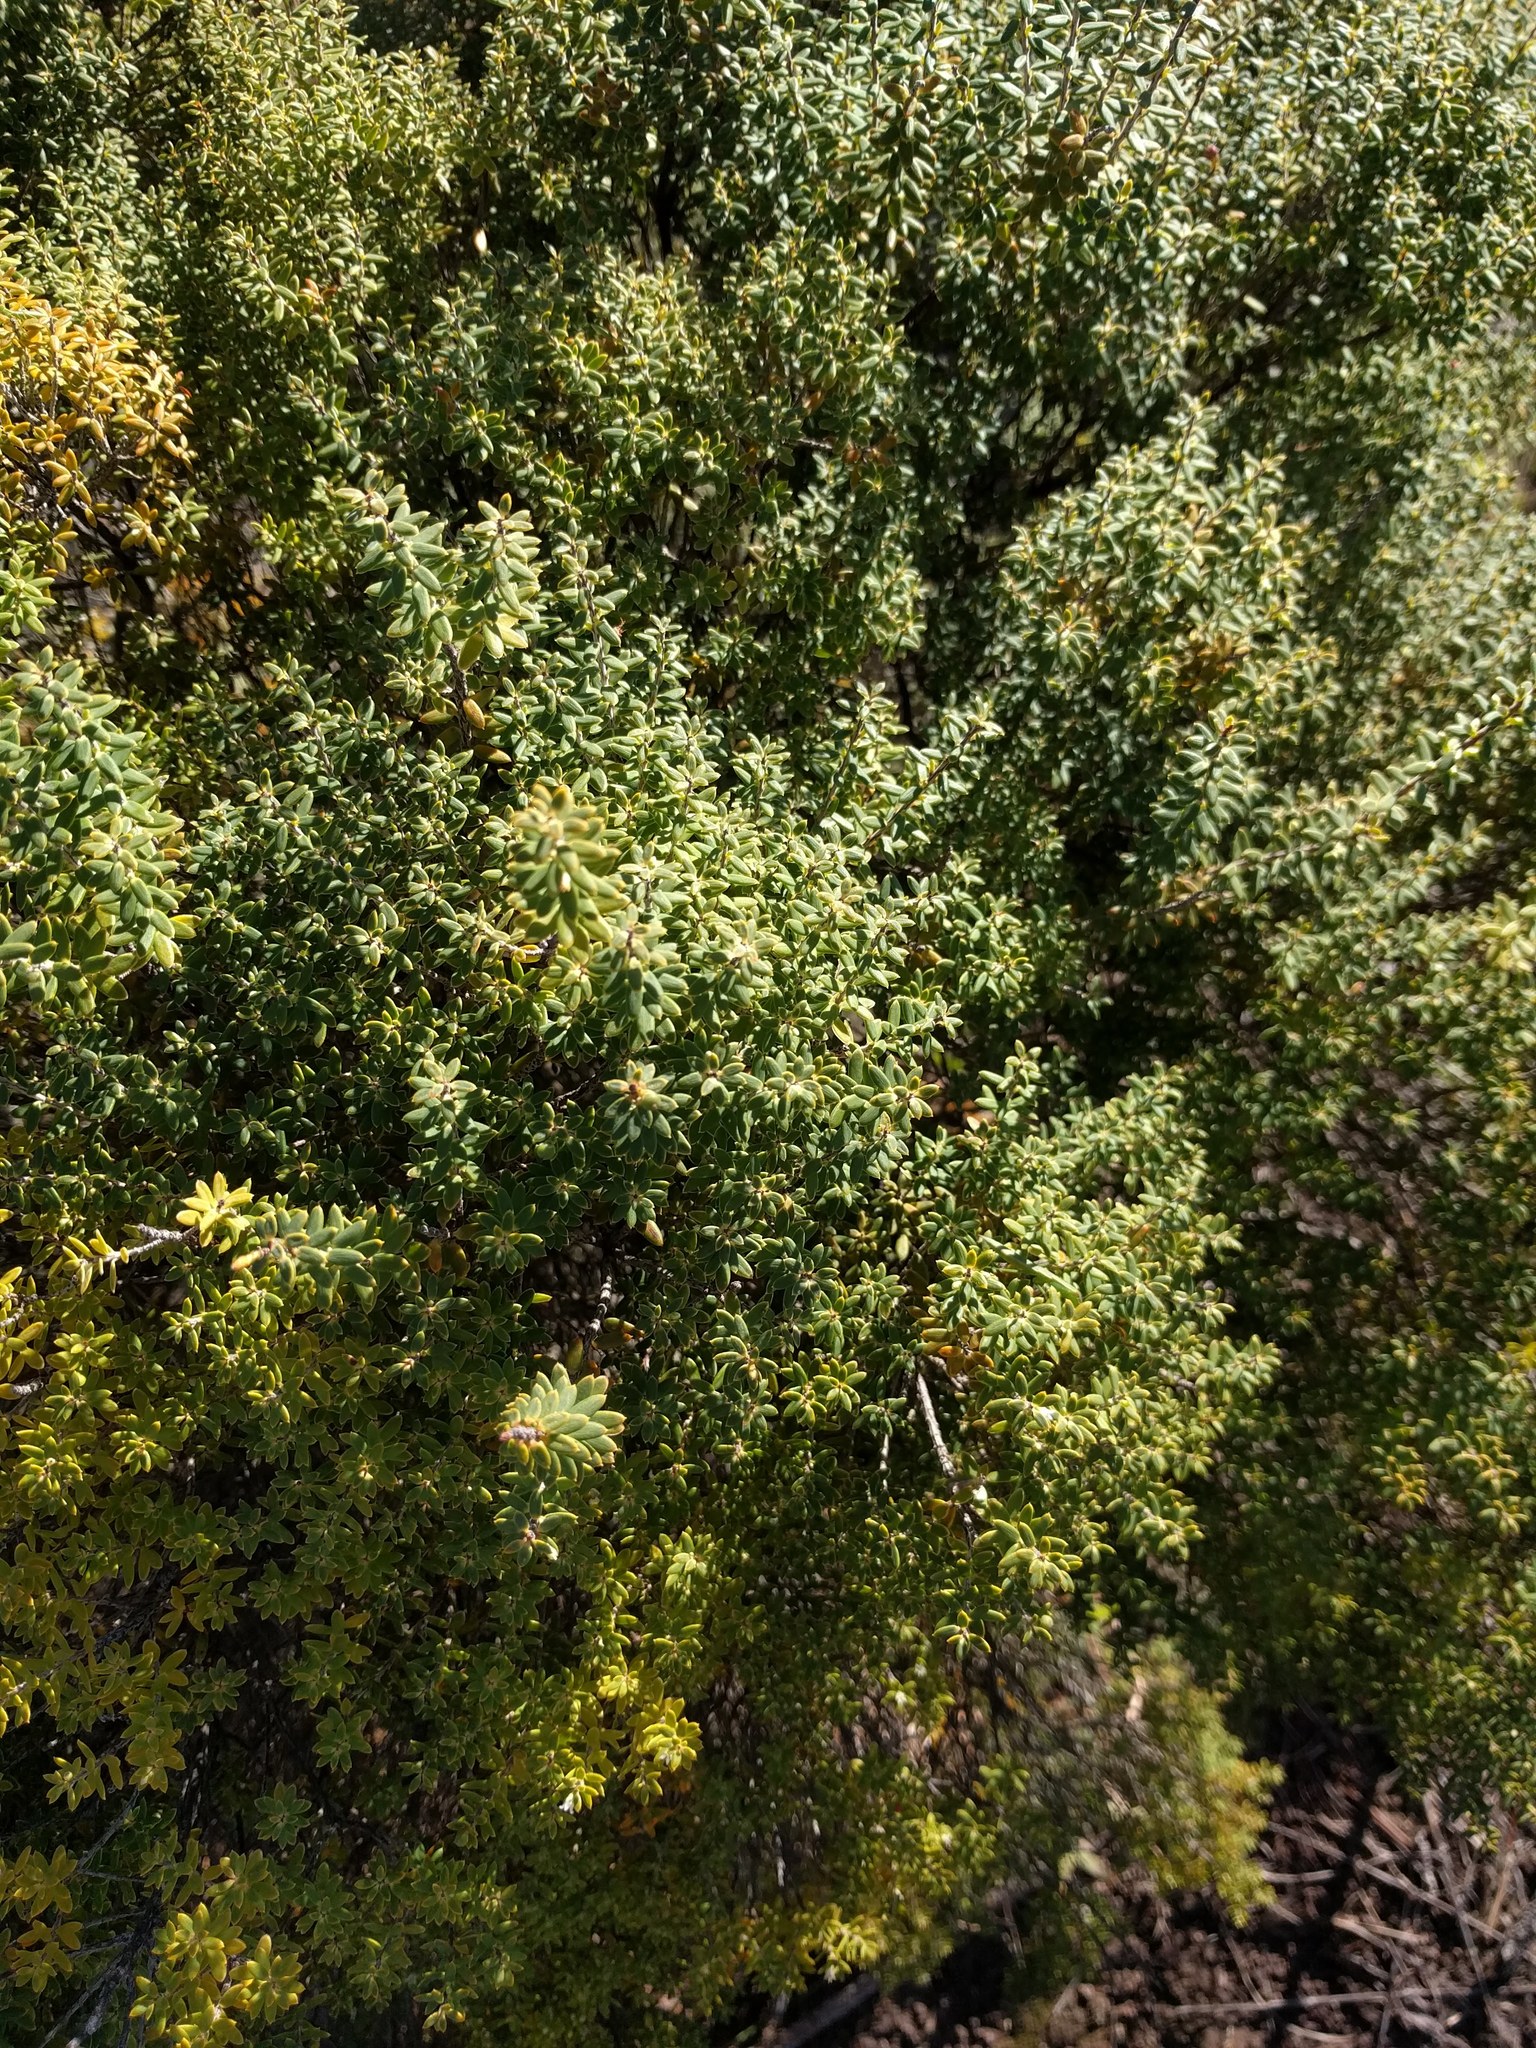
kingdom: Plantae
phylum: Tracheophyta
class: Magnoliopsida
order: Ericales
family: Ericaceae
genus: Leptecophylla
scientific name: Leptecophylla tameiameiae
